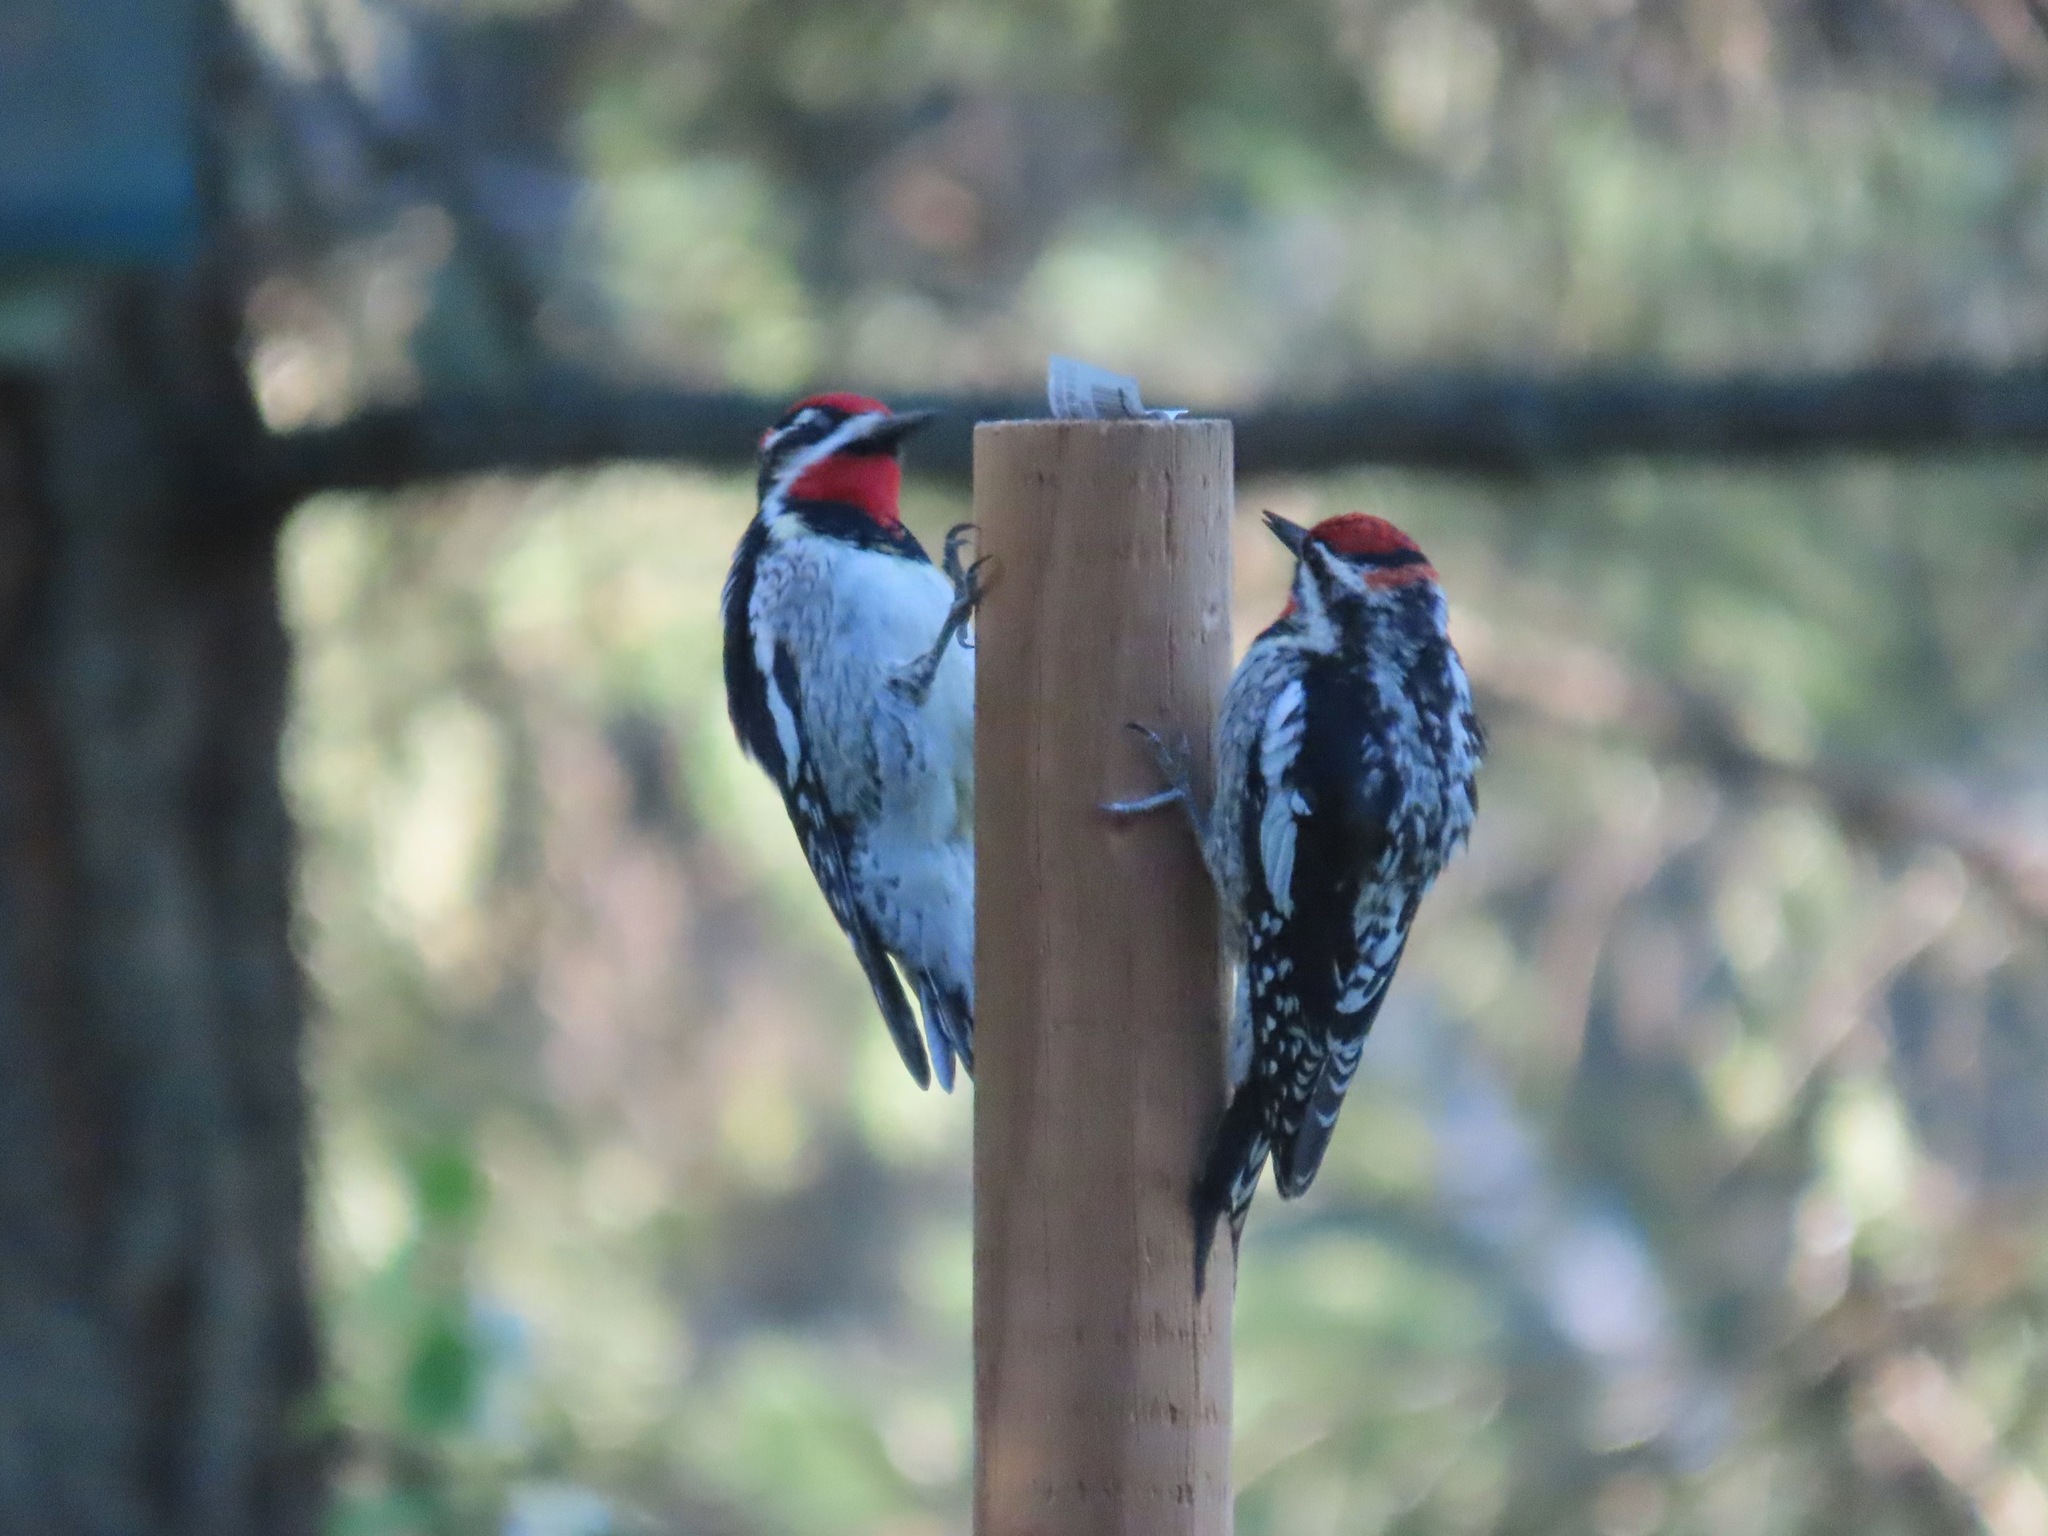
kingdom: Animalia
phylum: Chordata
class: Aves
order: Piciformes
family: Picidae
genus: Sphyrapicus
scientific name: Sphyrapicus nuchalis
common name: Red-naped sapsucker
